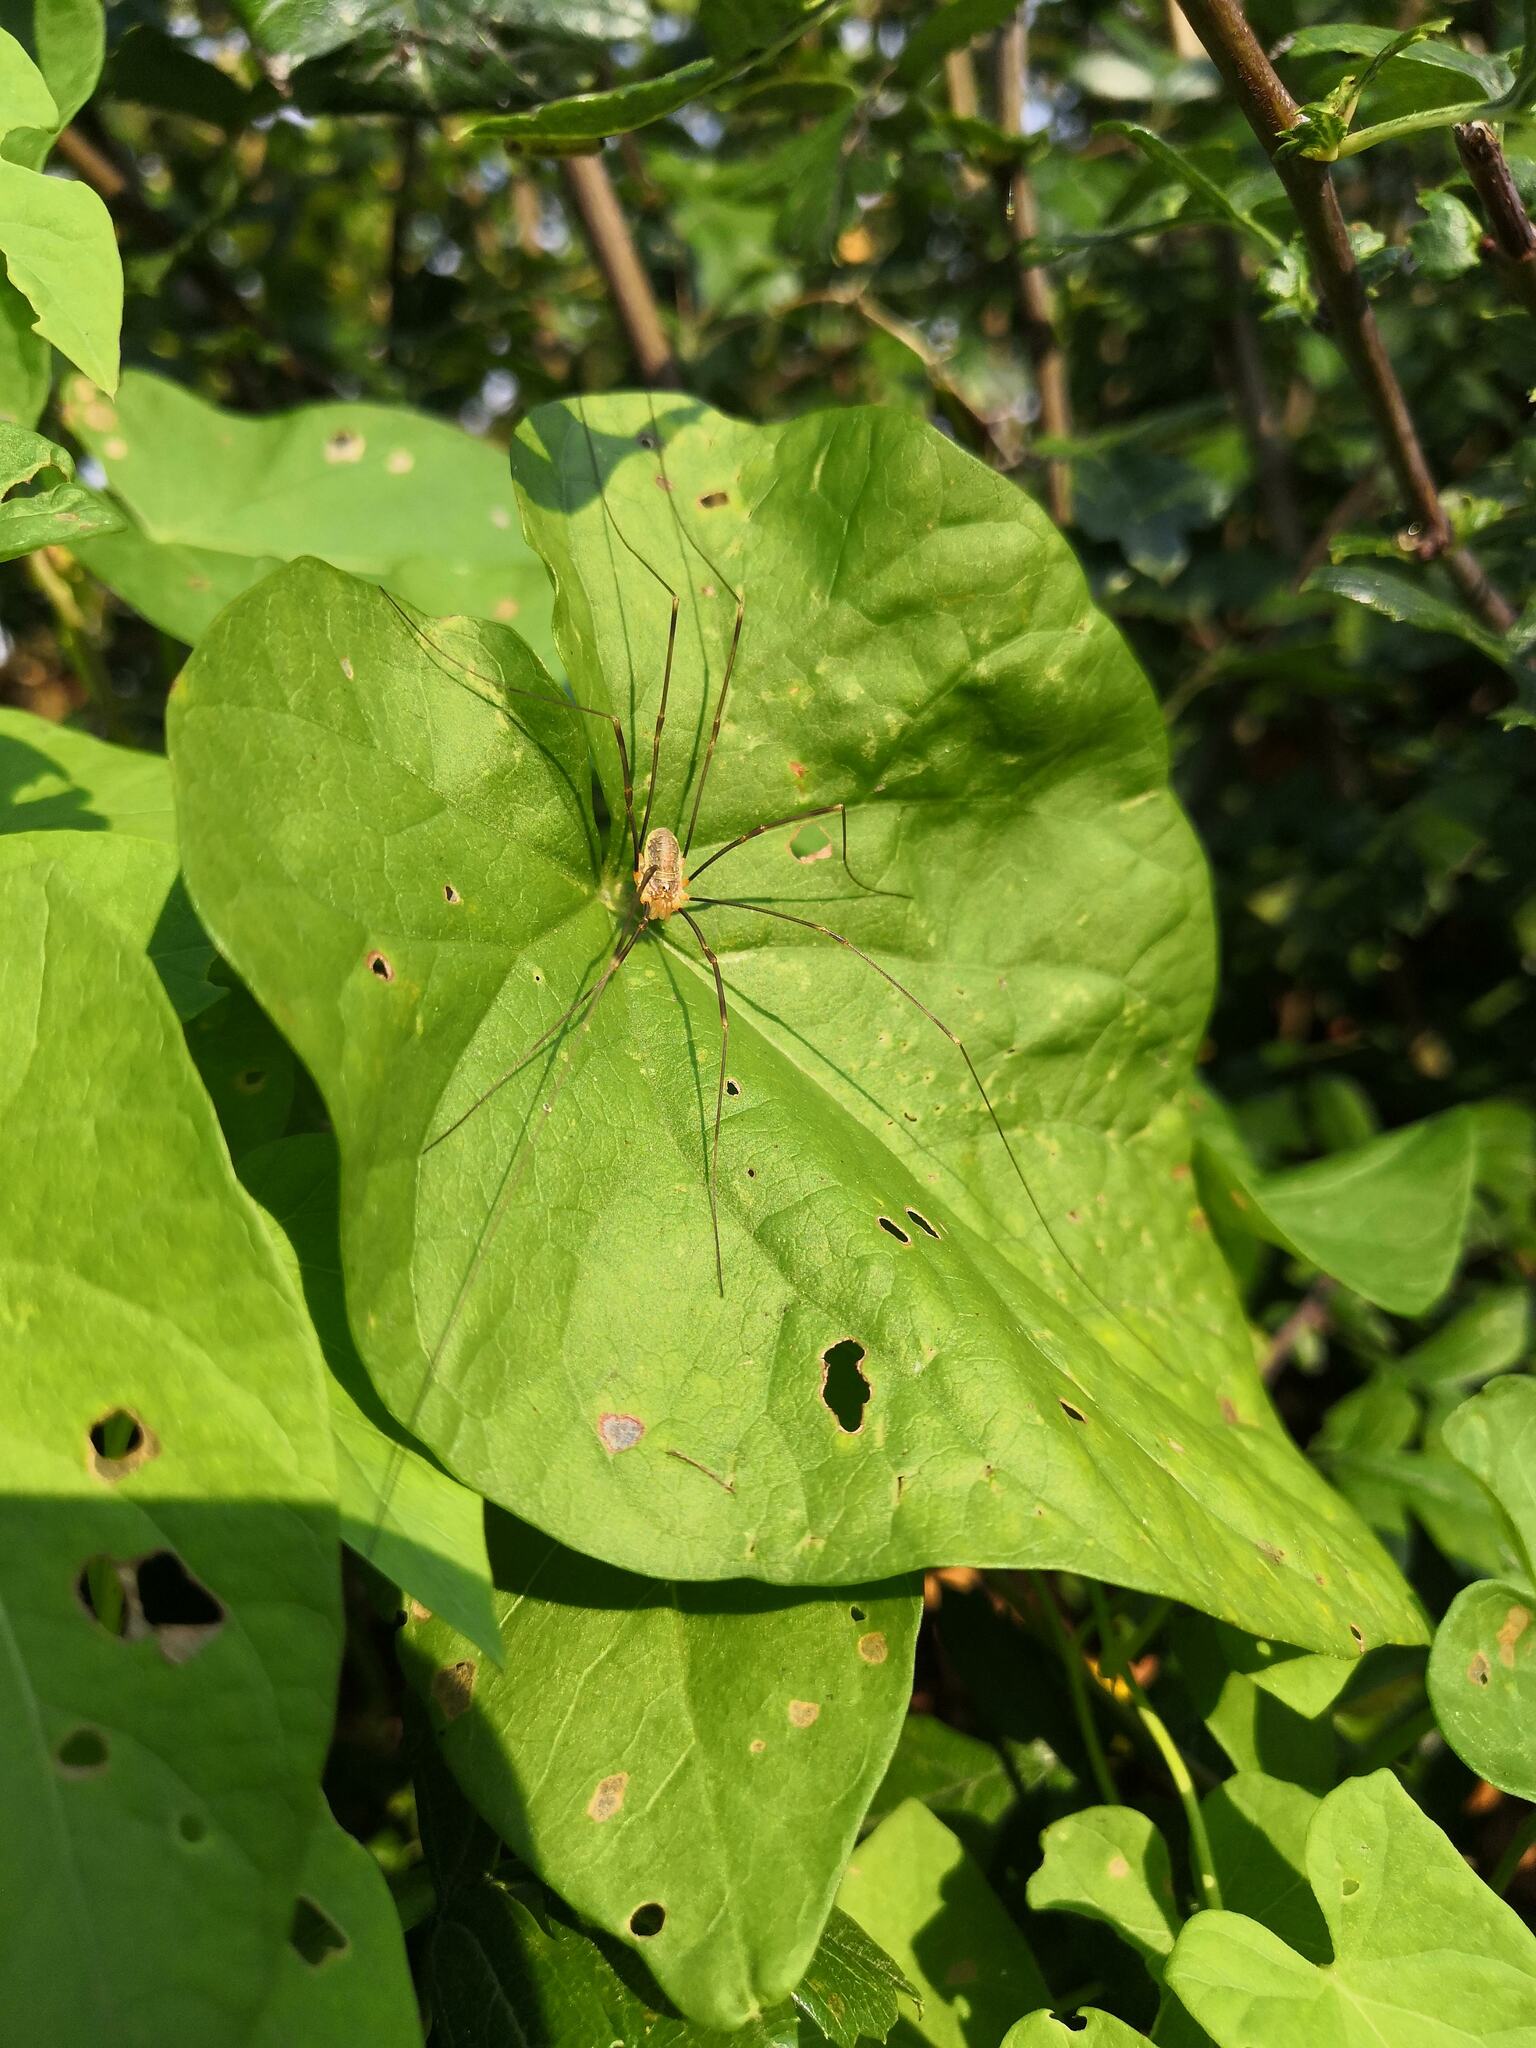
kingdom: Animalia
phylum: Arthropoda
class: Arachnida
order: Opiliones
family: Phalangiidae
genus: Opilio
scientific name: Opilio canestrinii
